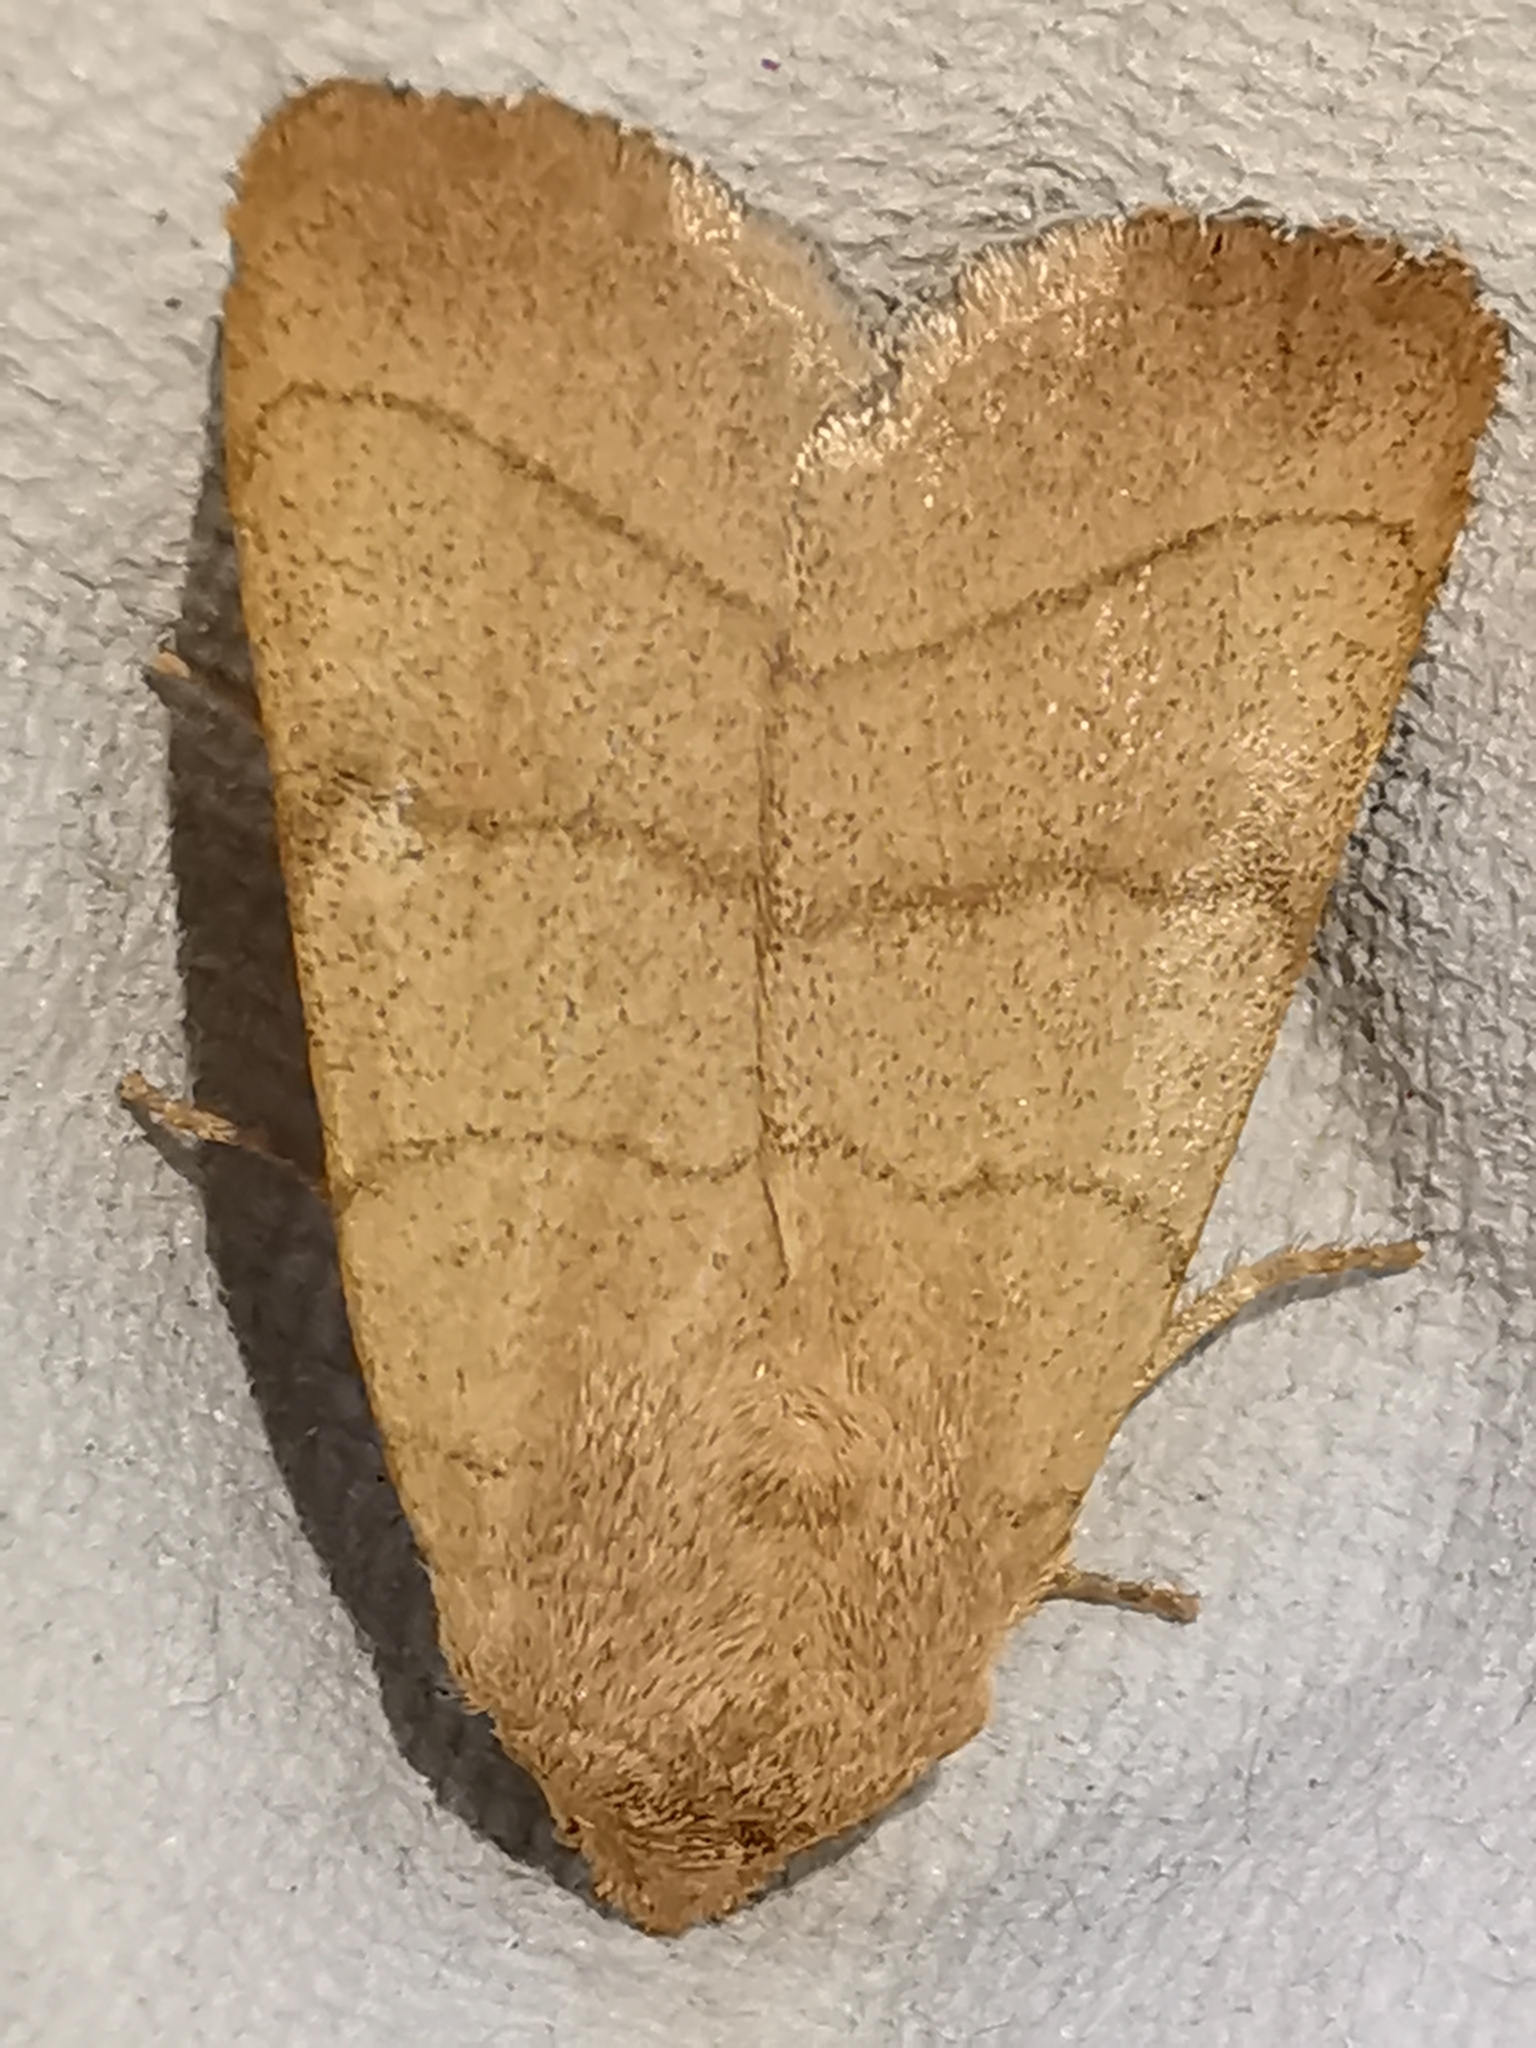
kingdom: Animalia
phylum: Arthropoda
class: Insecta
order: Lepidoptera
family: Noctuidae
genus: Charanyca
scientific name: Charanyca trigrammica
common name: Treble lines
